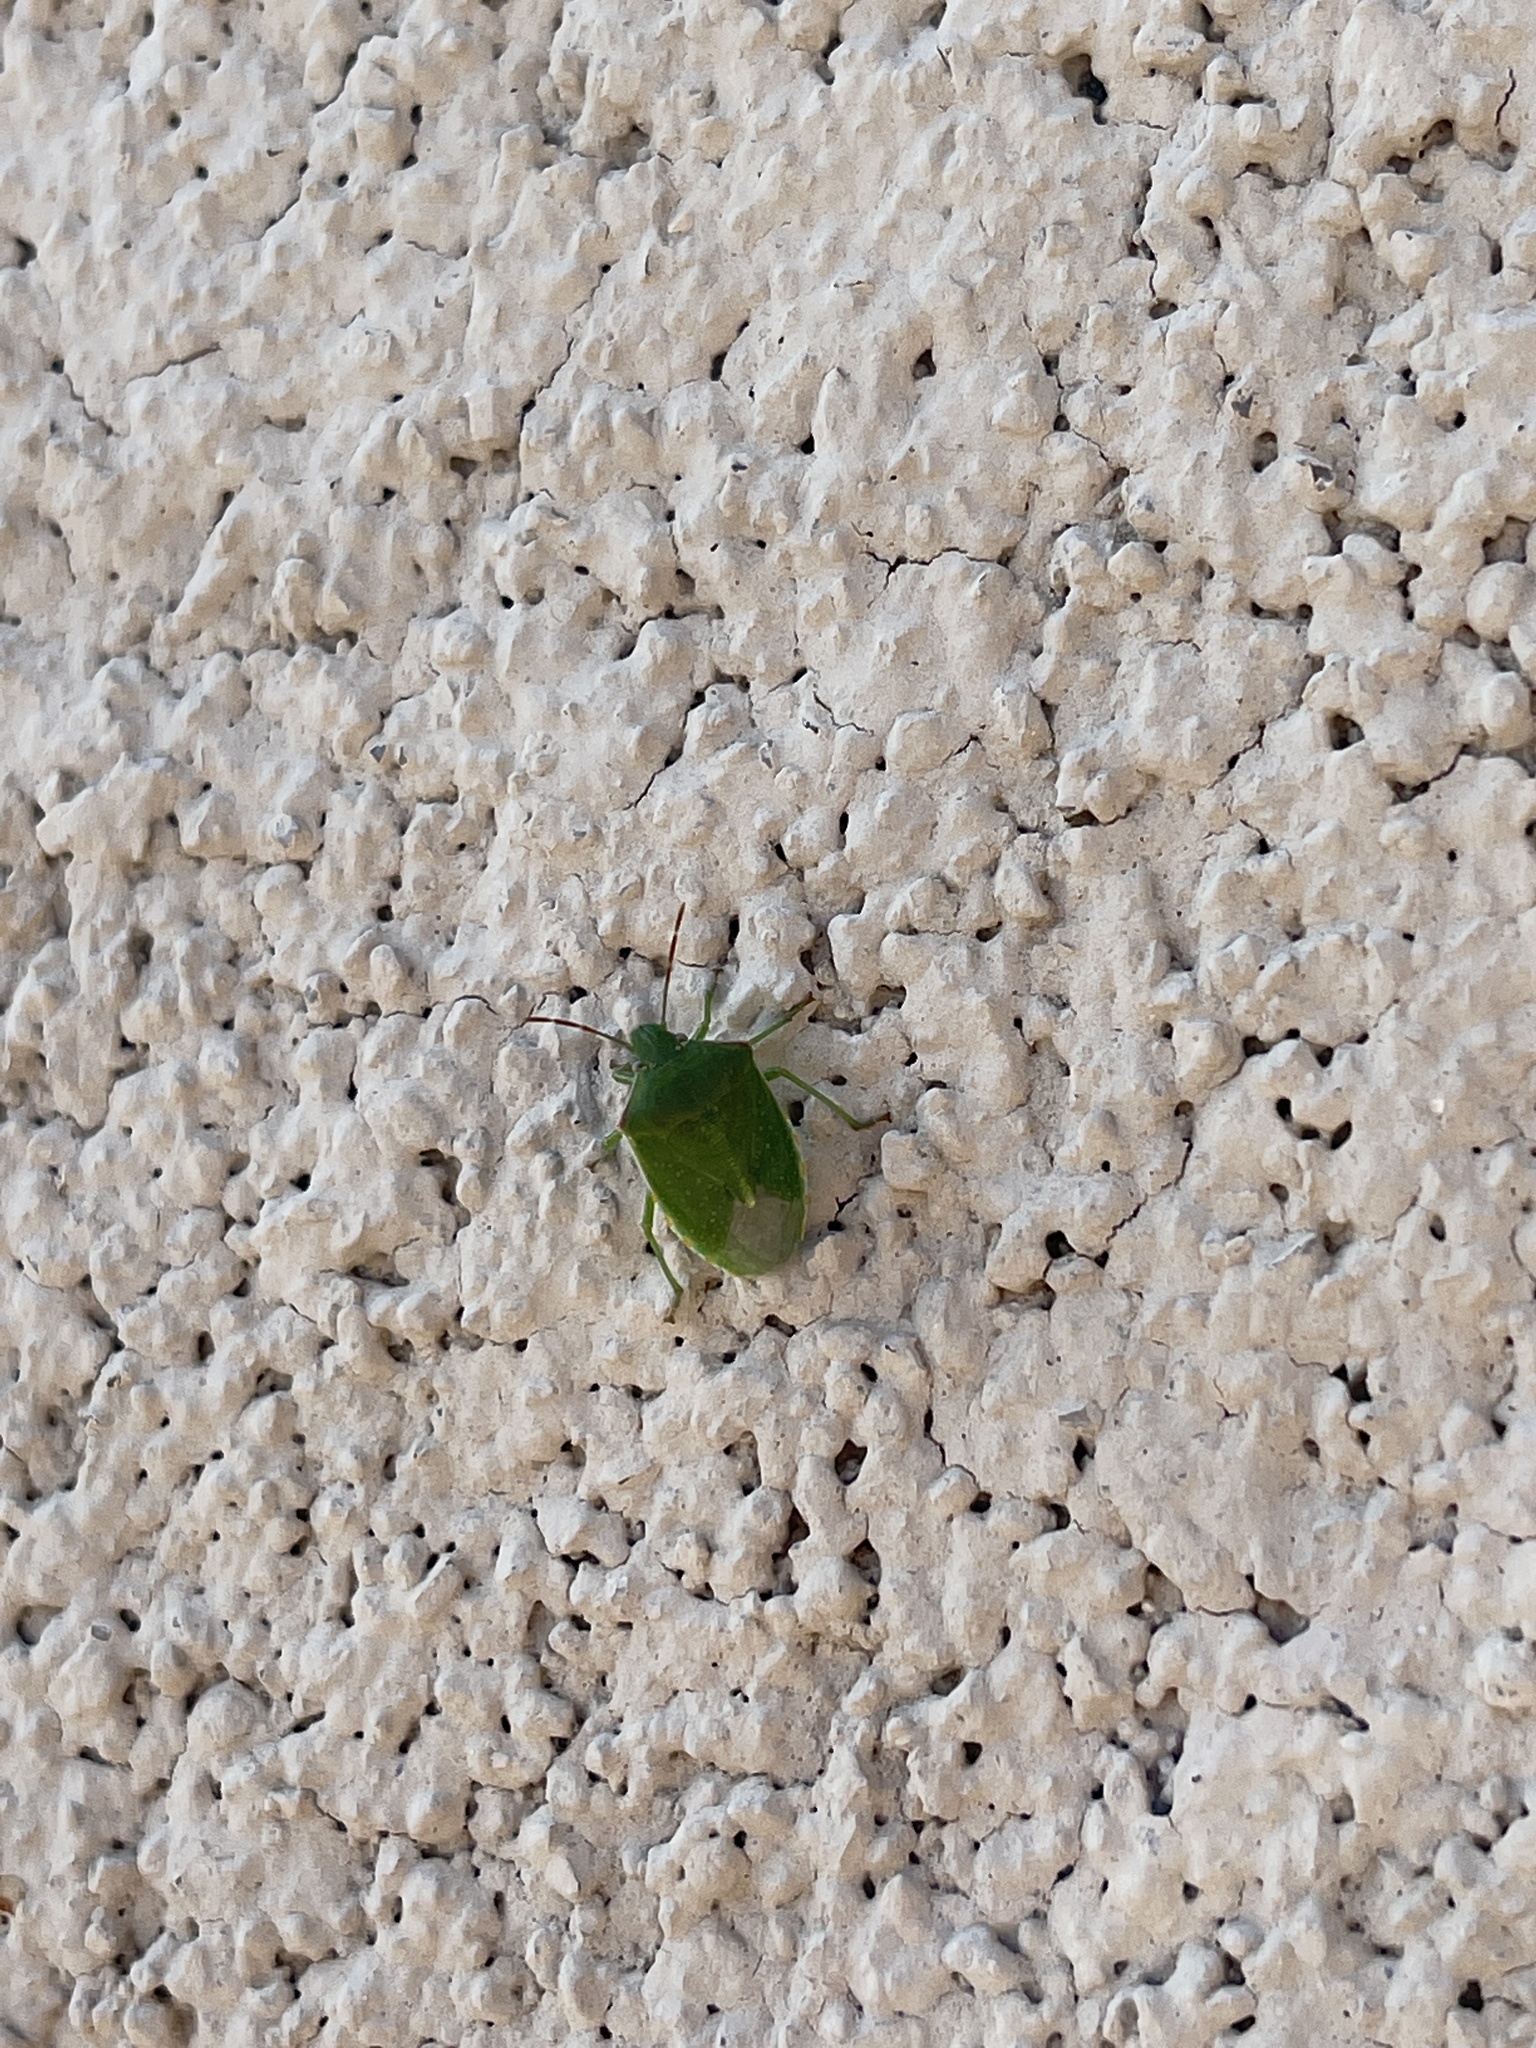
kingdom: Animalia
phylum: Arthropoda
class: Insecta
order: Hemiptera
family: Pentatomidae
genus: Thyanta
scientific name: Thyanta accerra
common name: Stink bug
